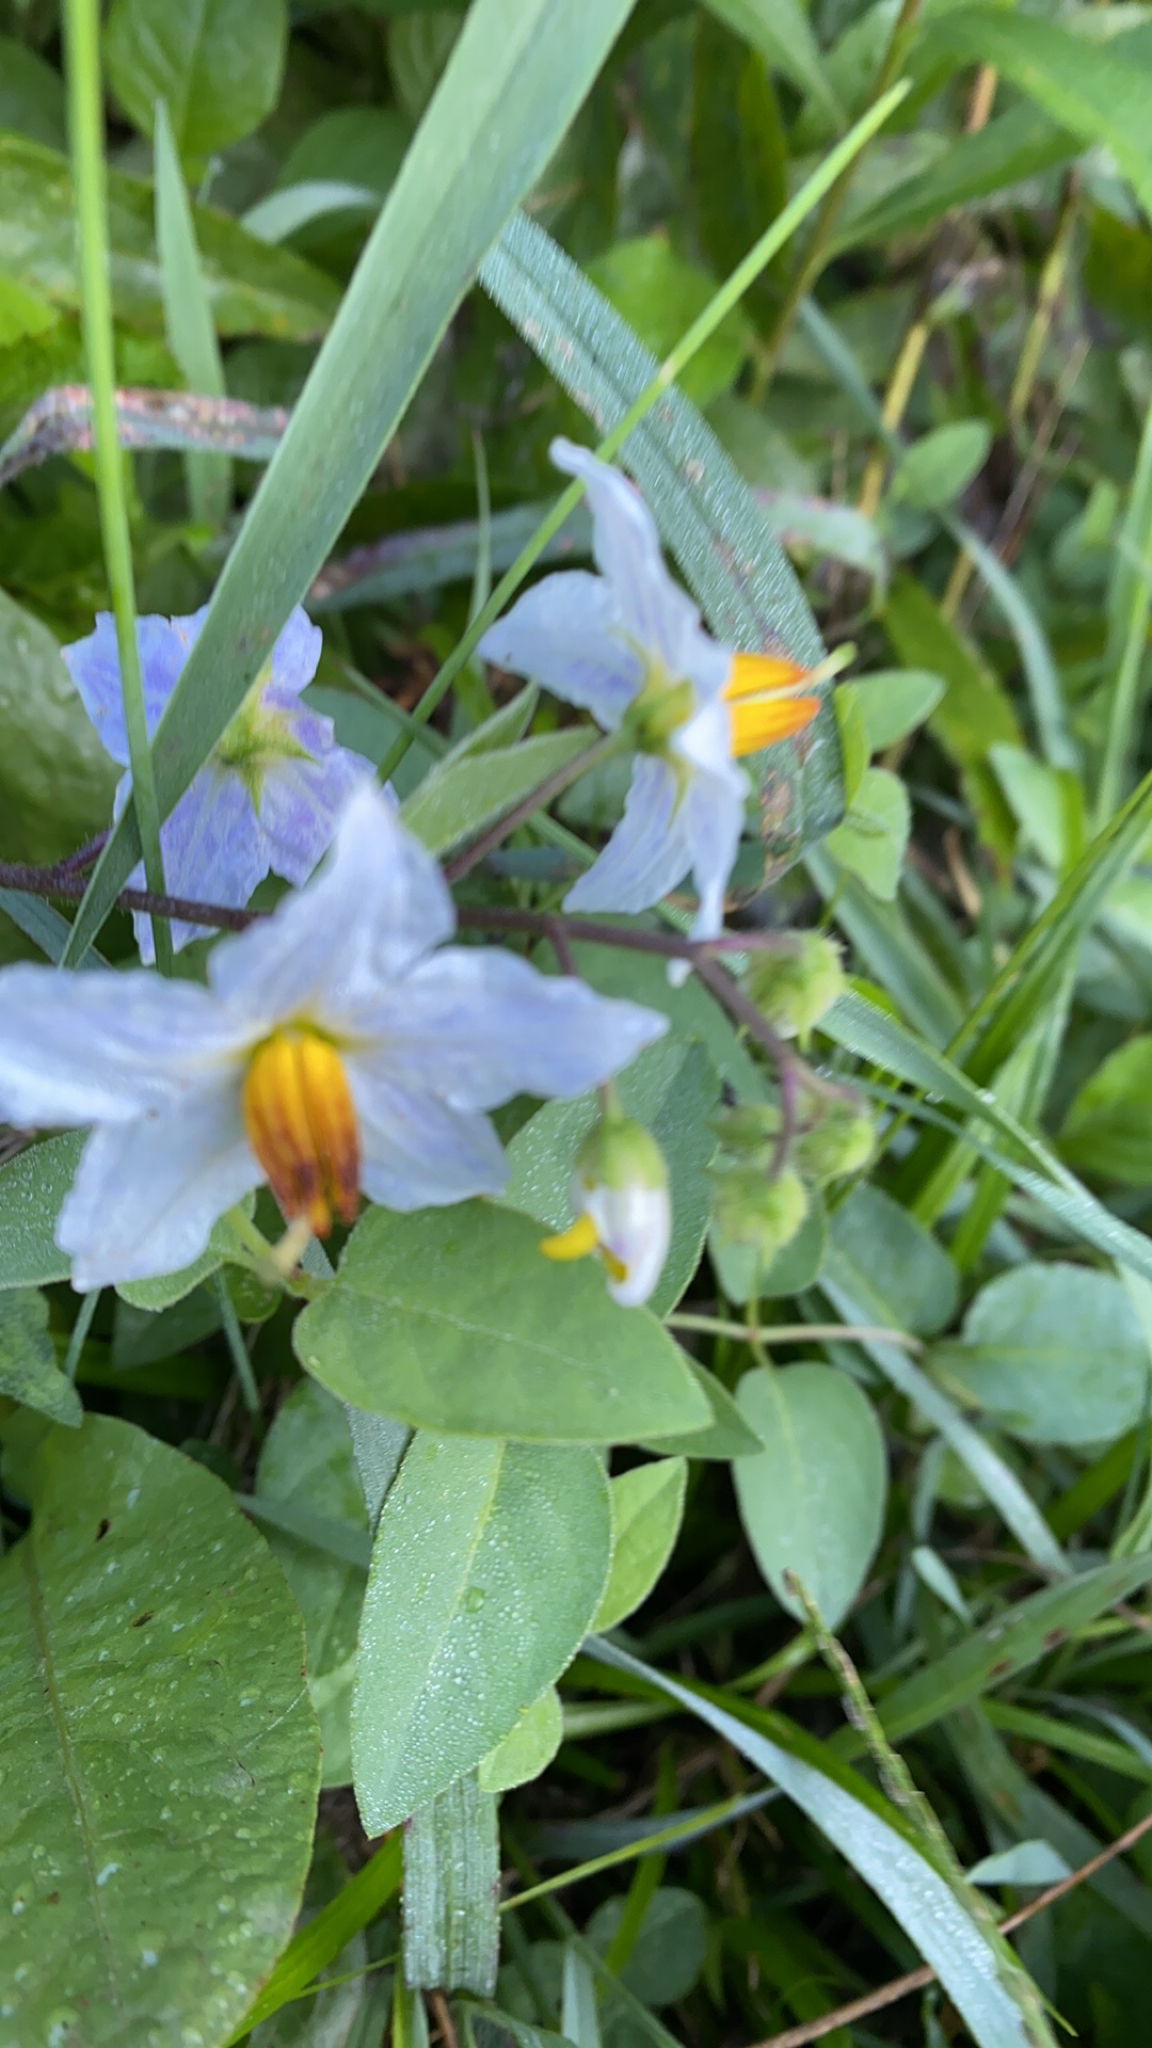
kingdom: Plantae
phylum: Tracheophyta
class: Magnoliopsida
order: Solanales
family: Solanaceae
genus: Solanum
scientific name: Solanum carolinense
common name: Horse-nettle
